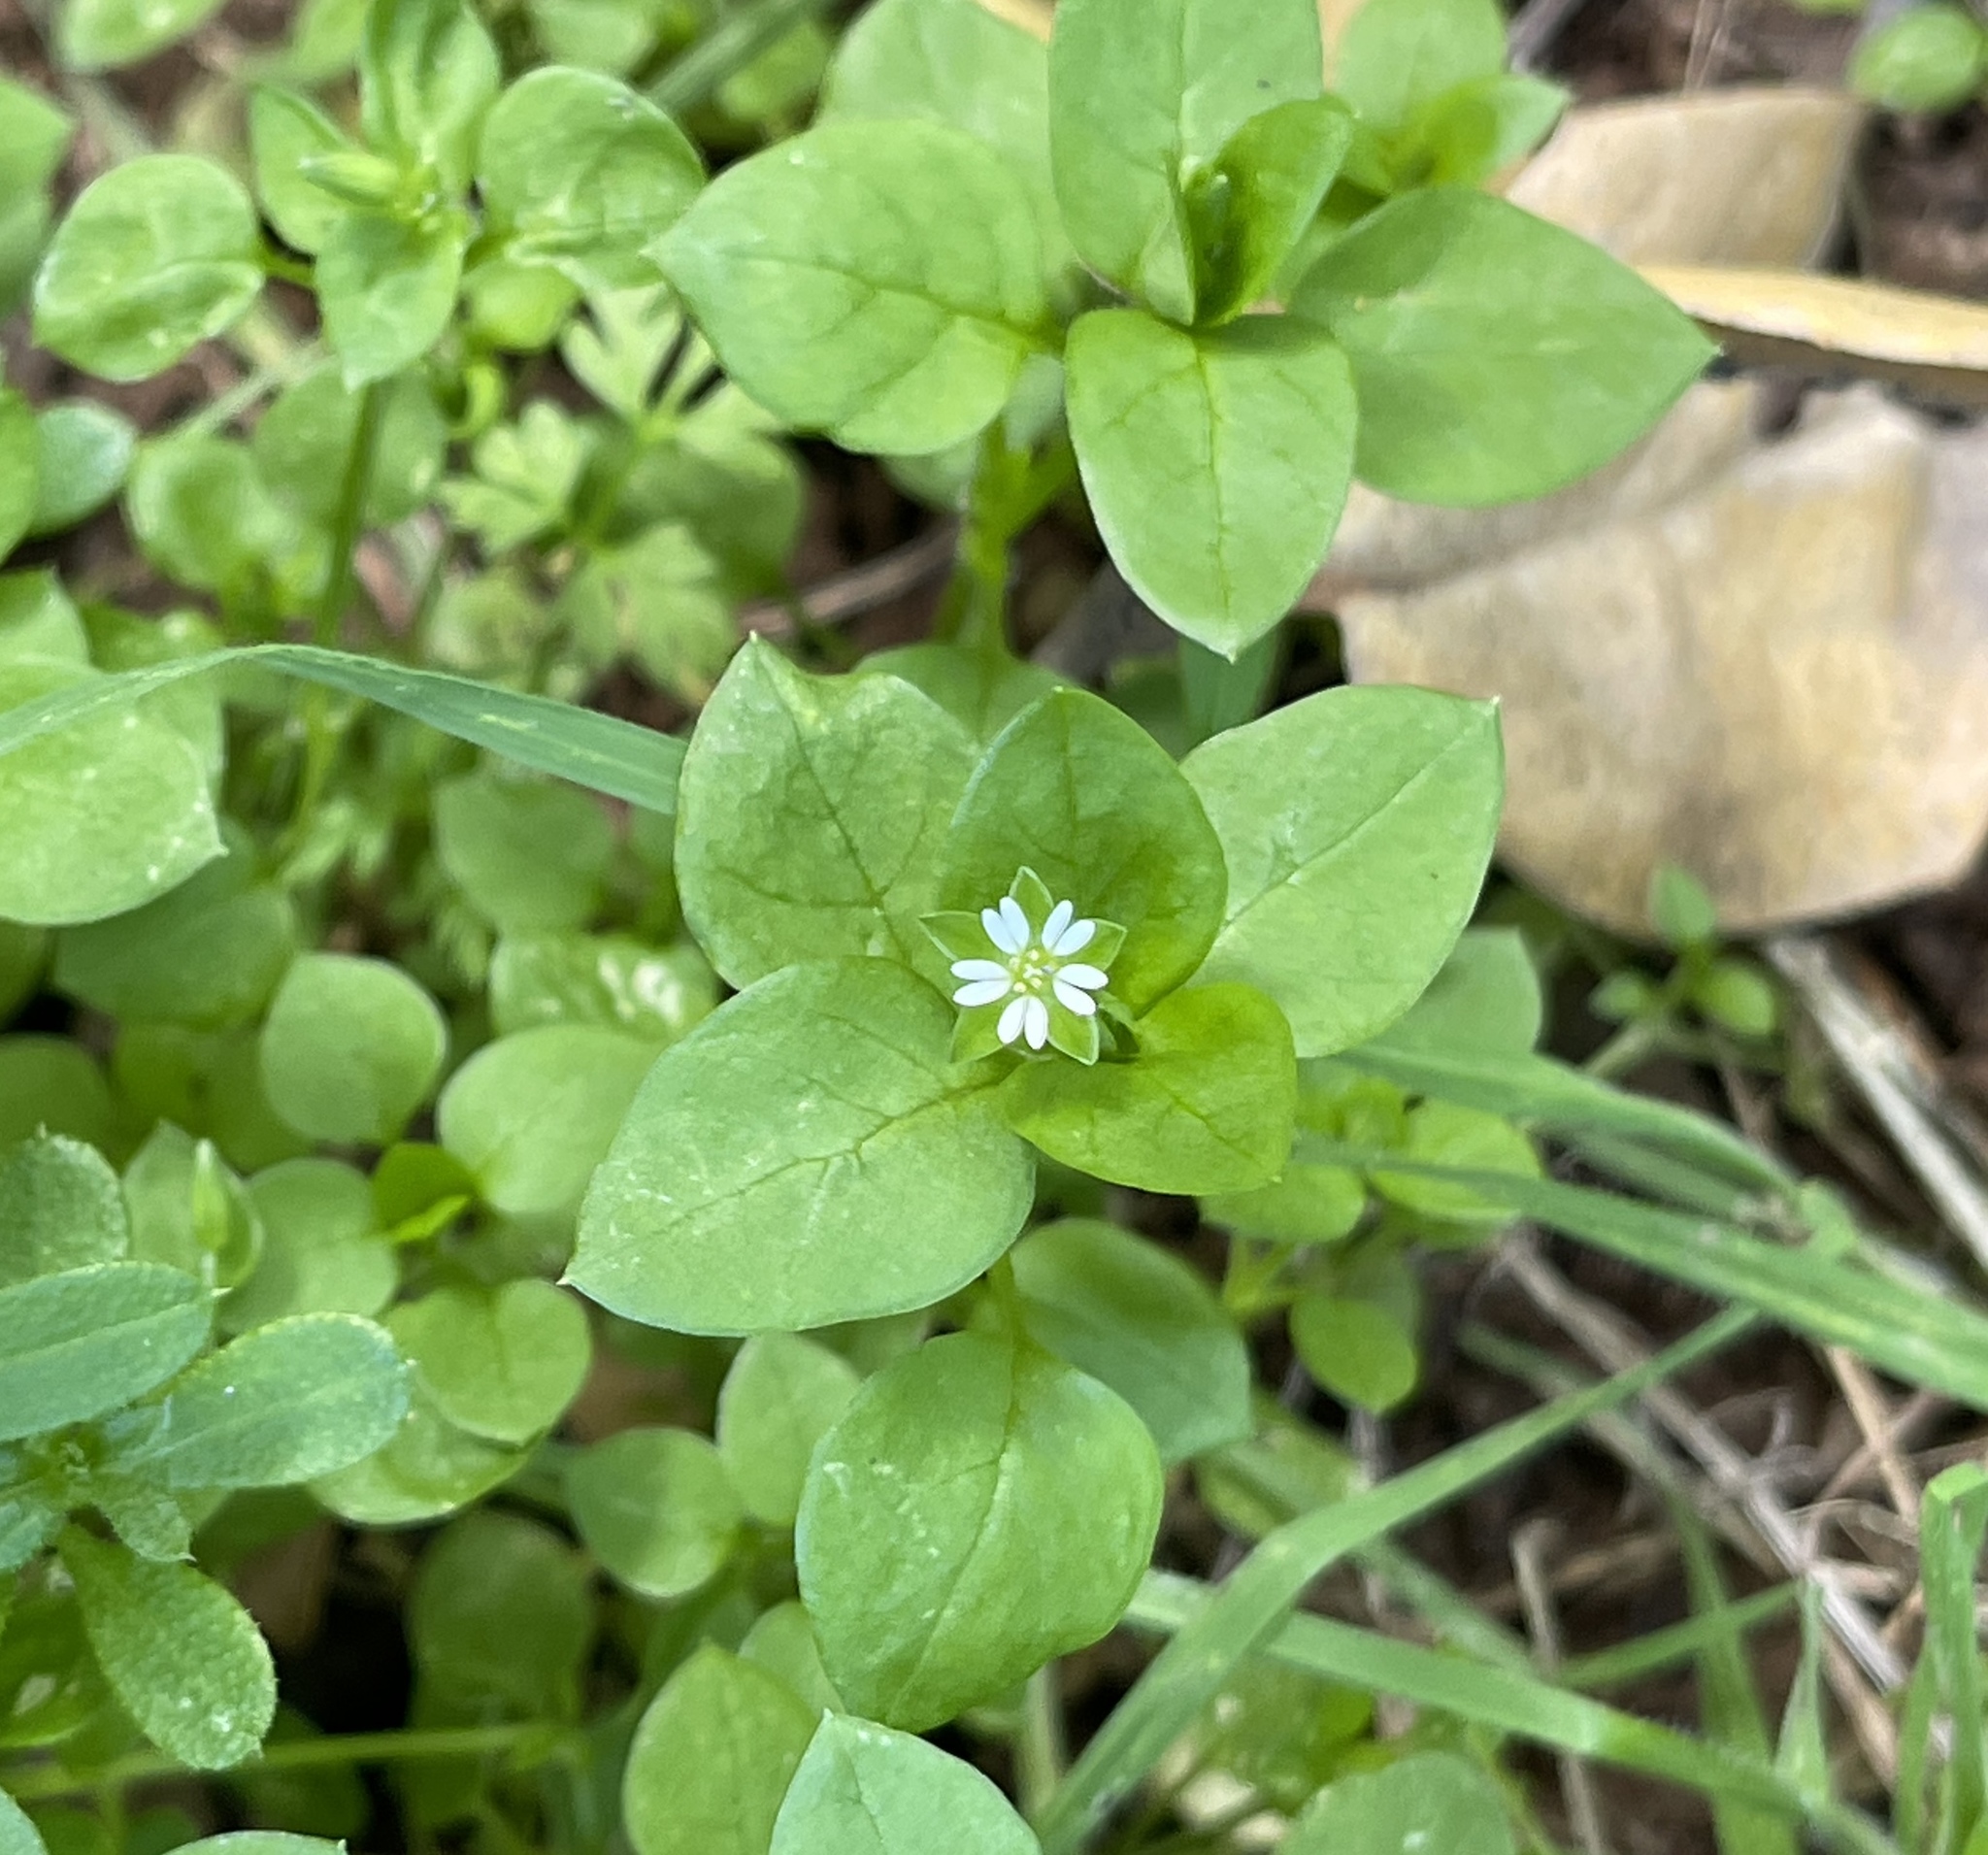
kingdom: Plantae
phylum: Tracheophyta
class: Magnoliopsida
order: Caryophyllales
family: Caryophyllaceae
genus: Stellaria
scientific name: Stellaria media
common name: Common chickweed
